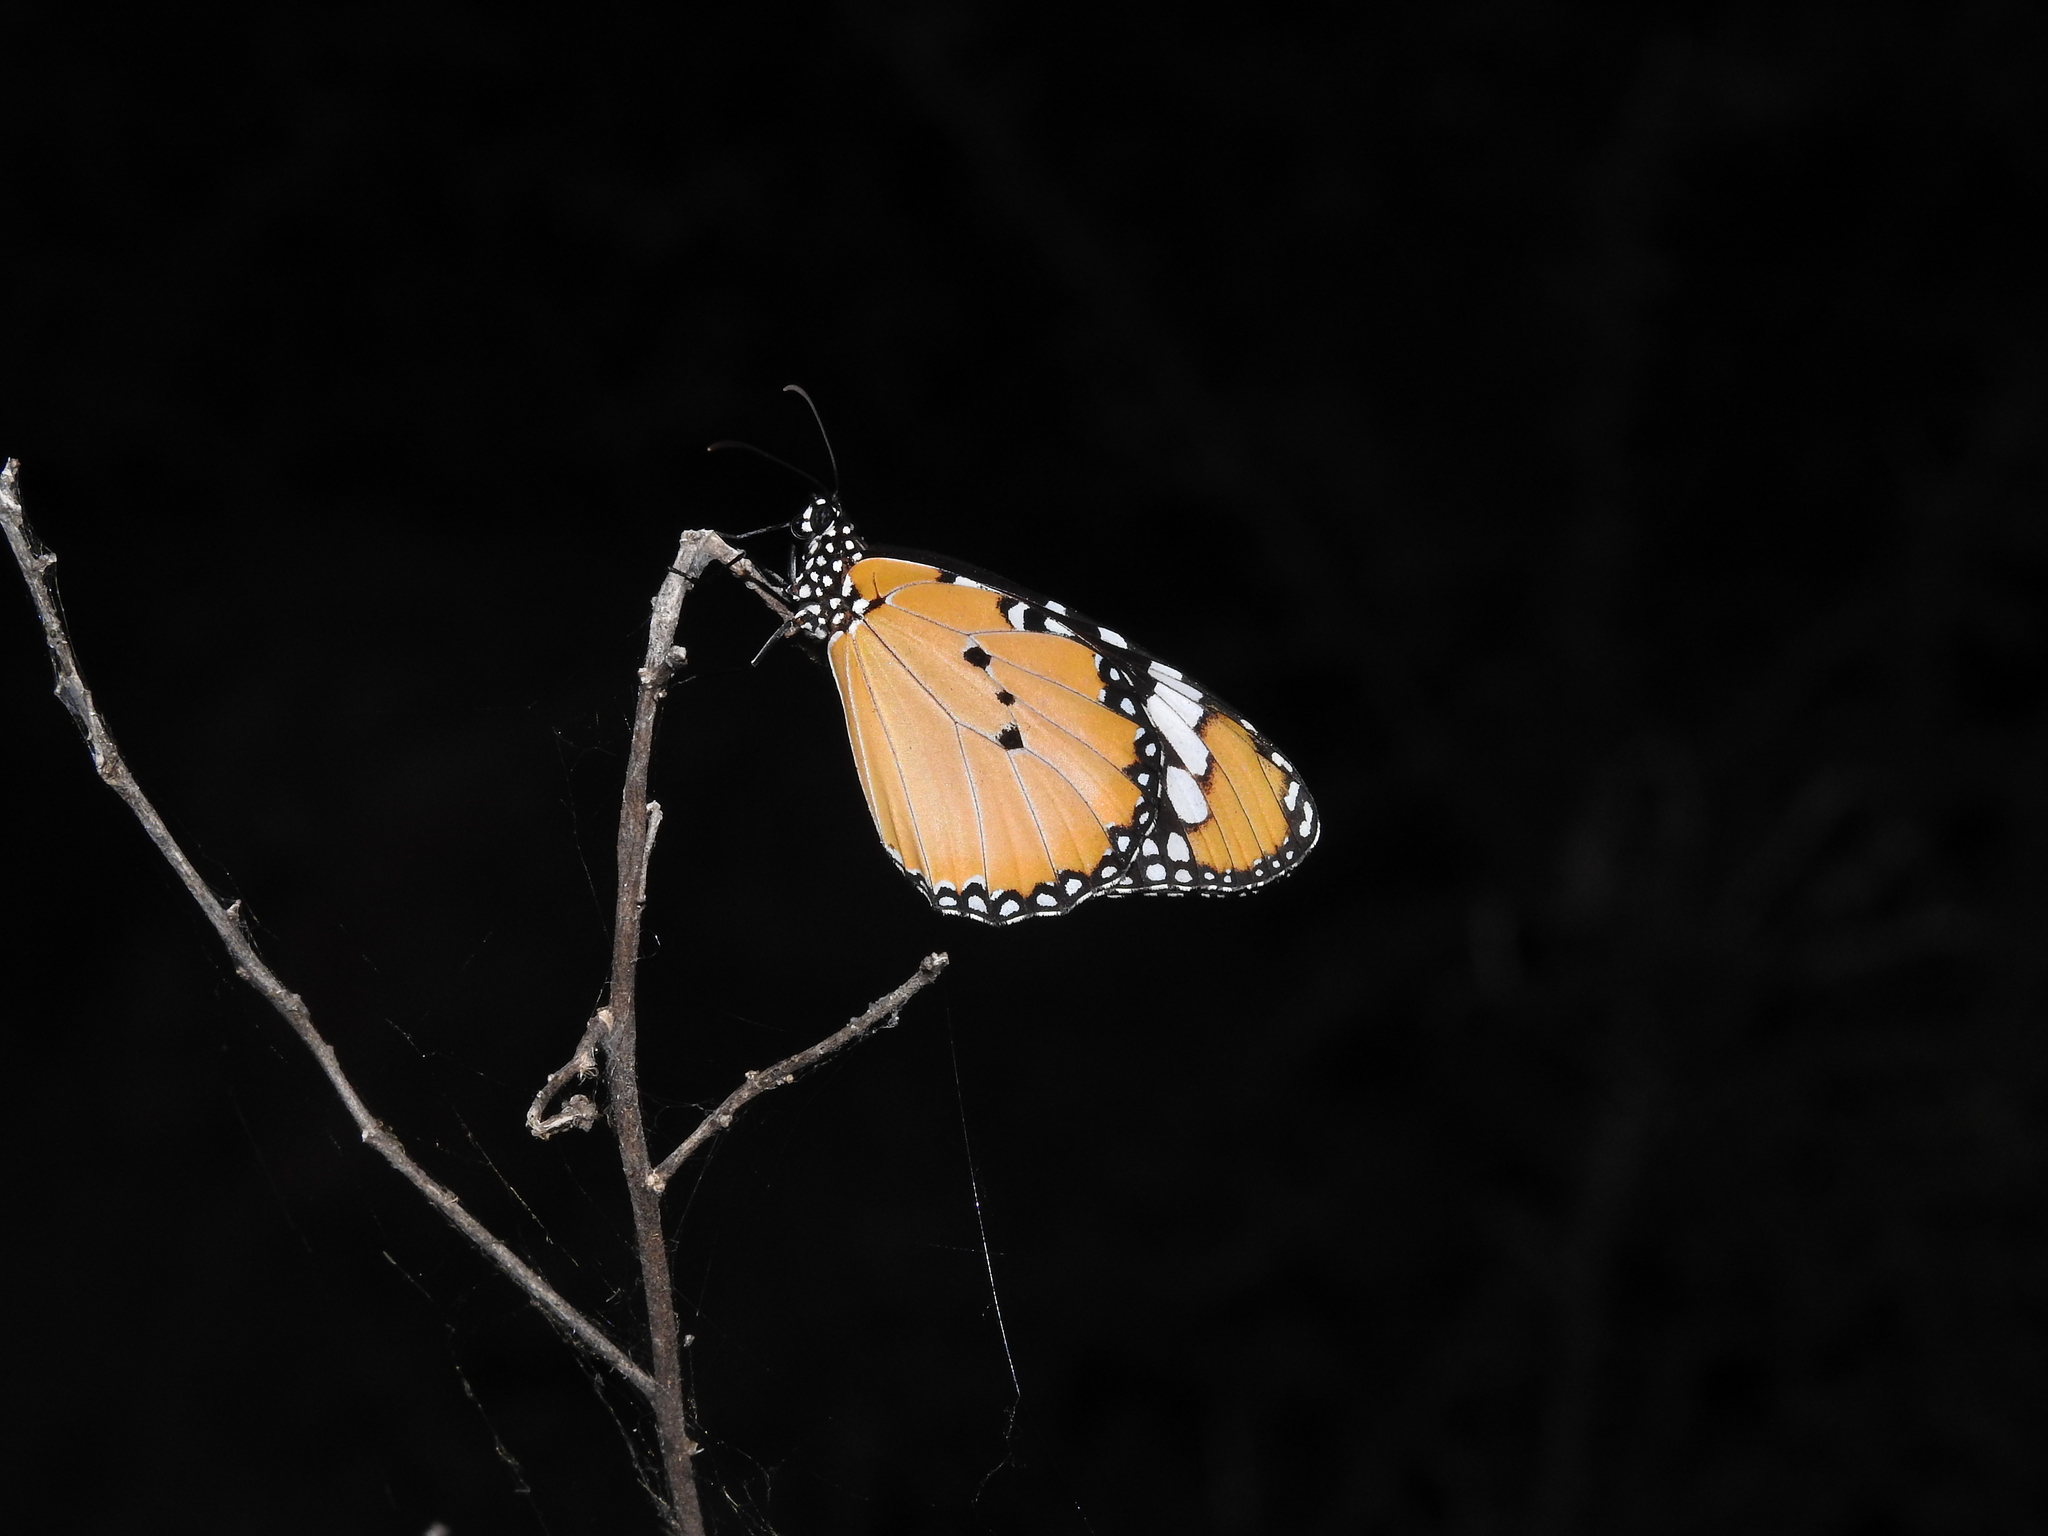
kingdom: Animalia
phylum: Arthropoda
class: Insecta
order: Lepidoptera
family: Nymphalidae
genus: Danaus
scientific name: Danaus chrysippus
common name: Plain tiger
